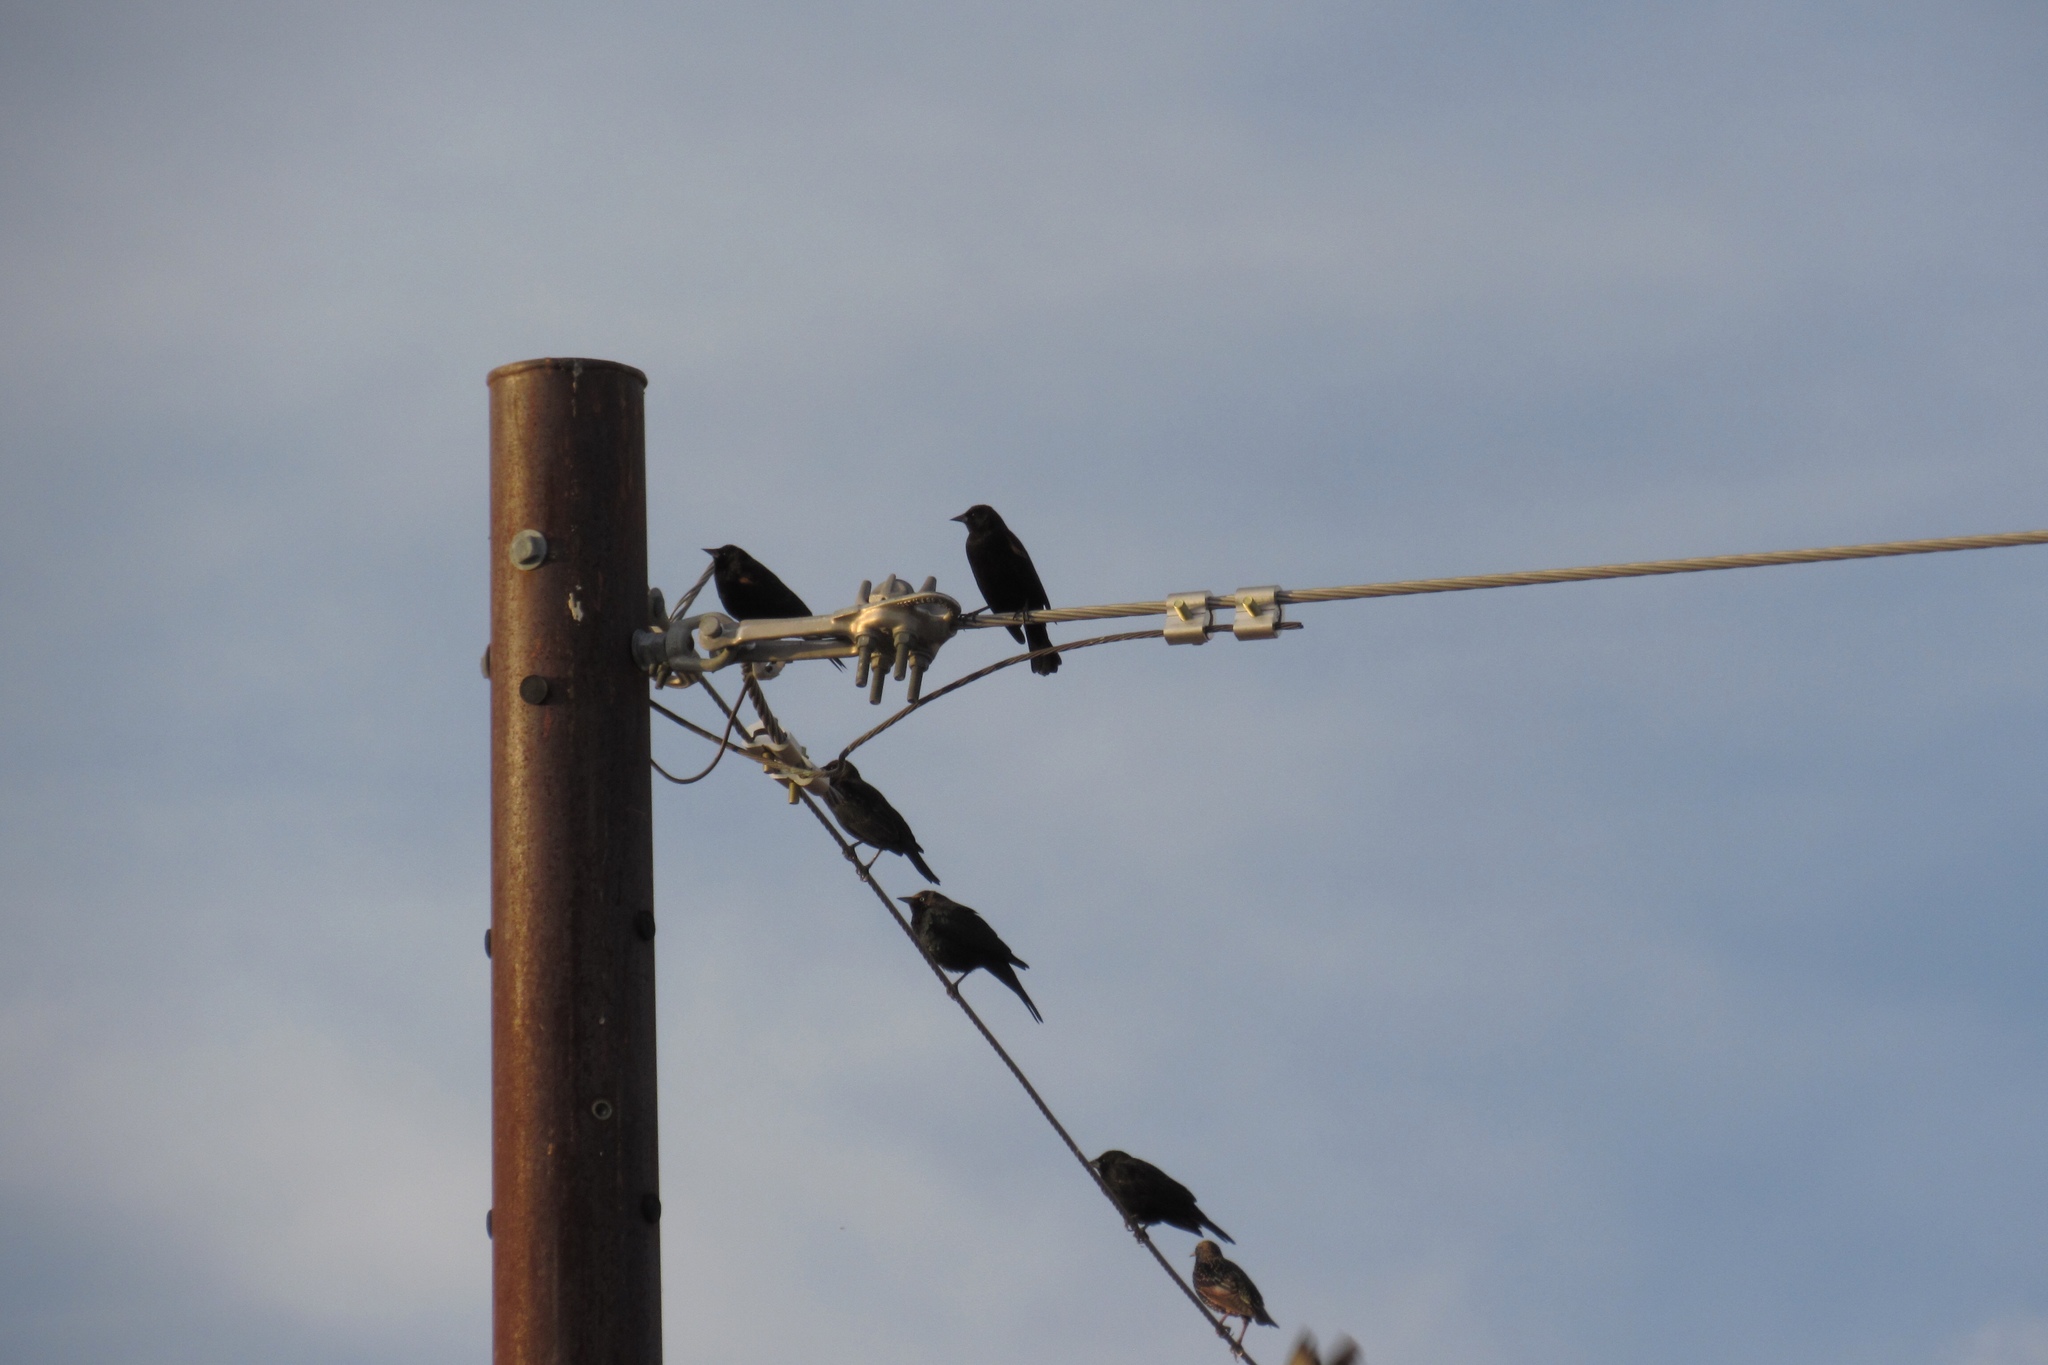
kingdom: Animalia
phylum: Chordata
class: Aves
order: Passeriformes
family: Icteridae
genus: Agelaius
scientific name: Agelaius phoeniceus
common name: Red-winged blackbird
